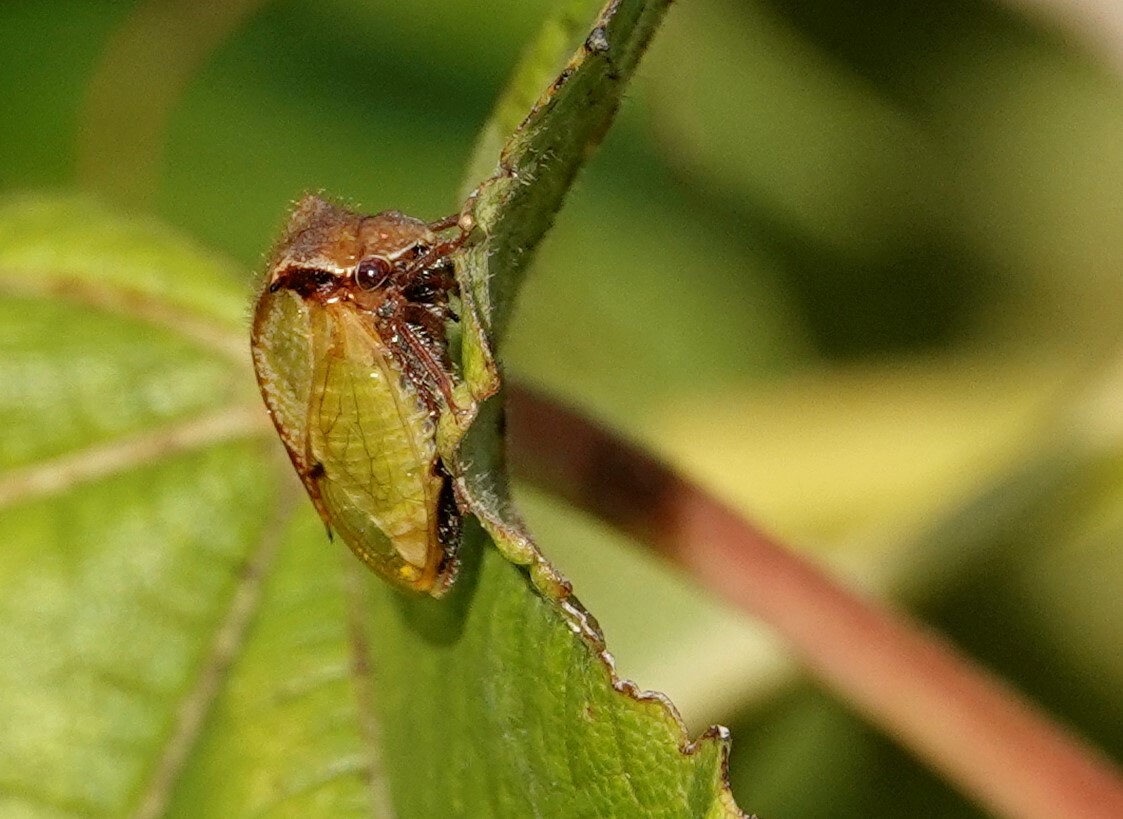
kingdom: Animalia
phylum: Arthropoda
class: Insecta
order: Hemiptera
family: Membracidae
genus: Stictocephala
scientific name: Stictocephala basalis
